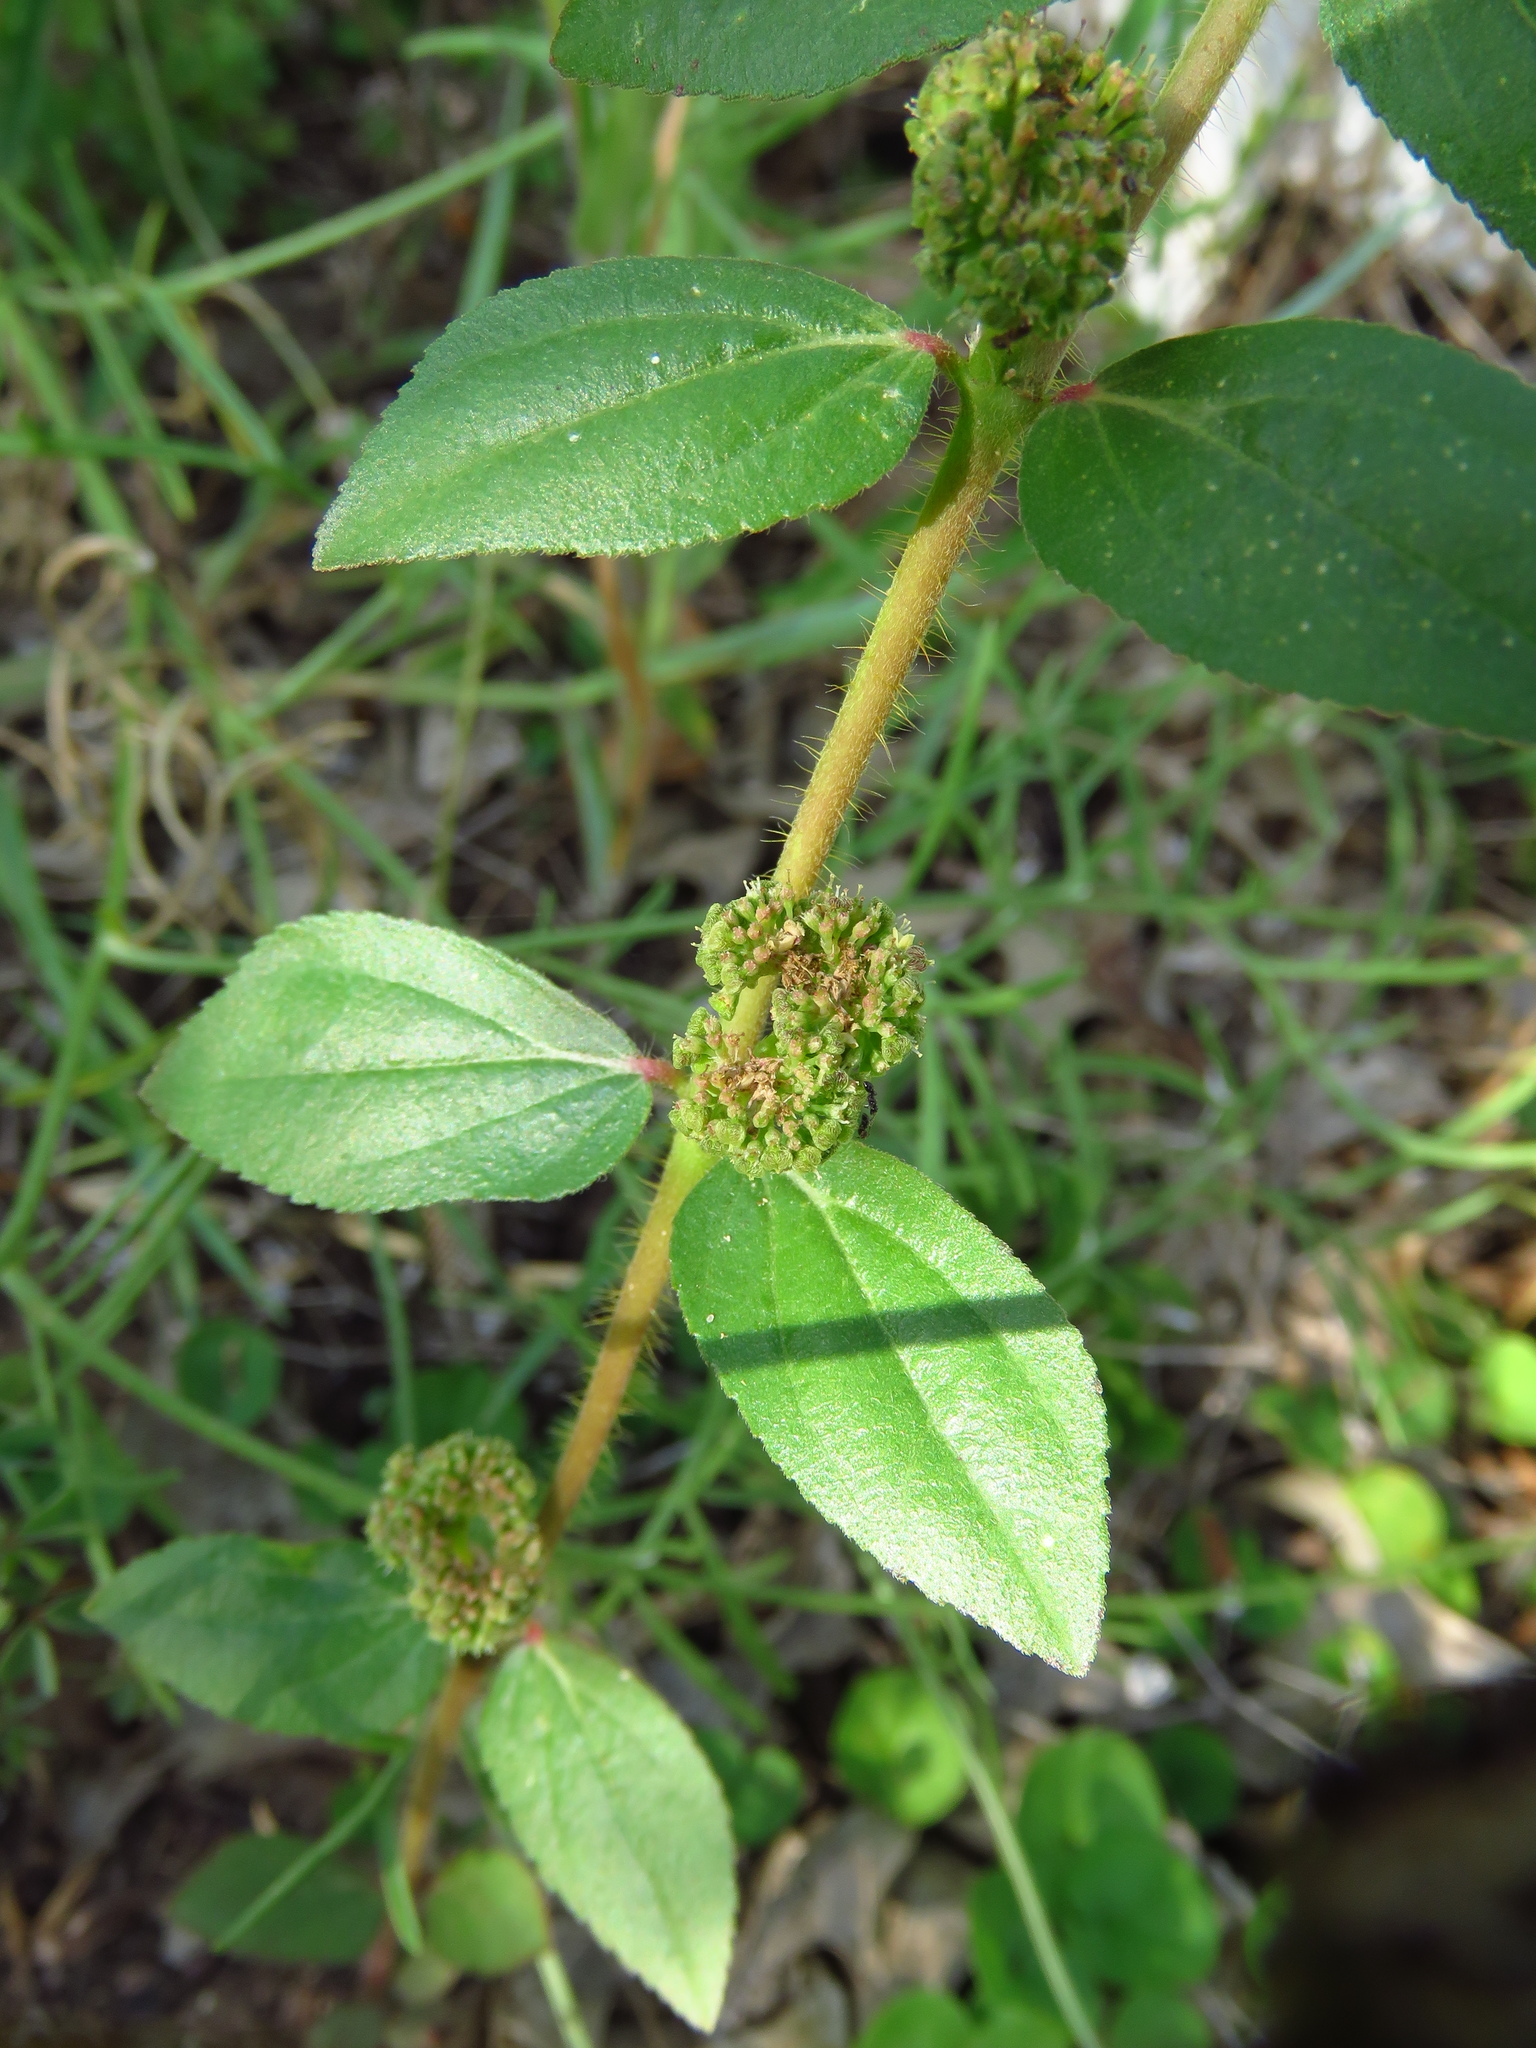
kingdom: Plantae
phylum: Tracheophyta
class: Magnoliopsida
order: Malpighiales
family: Euphorbiaceae
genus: Euphorbia
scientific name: Euphorbia hirta
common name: Pillpod sandmat
